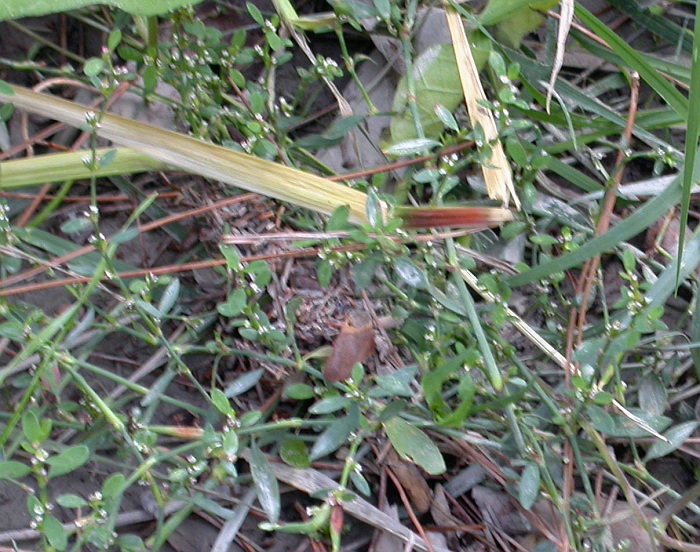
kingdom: Plantae
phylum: Tracheophyta
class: Magnoliopsida
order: Caryophyllales
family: Polygonaceae
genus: Polygonum
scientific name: Polygonum
